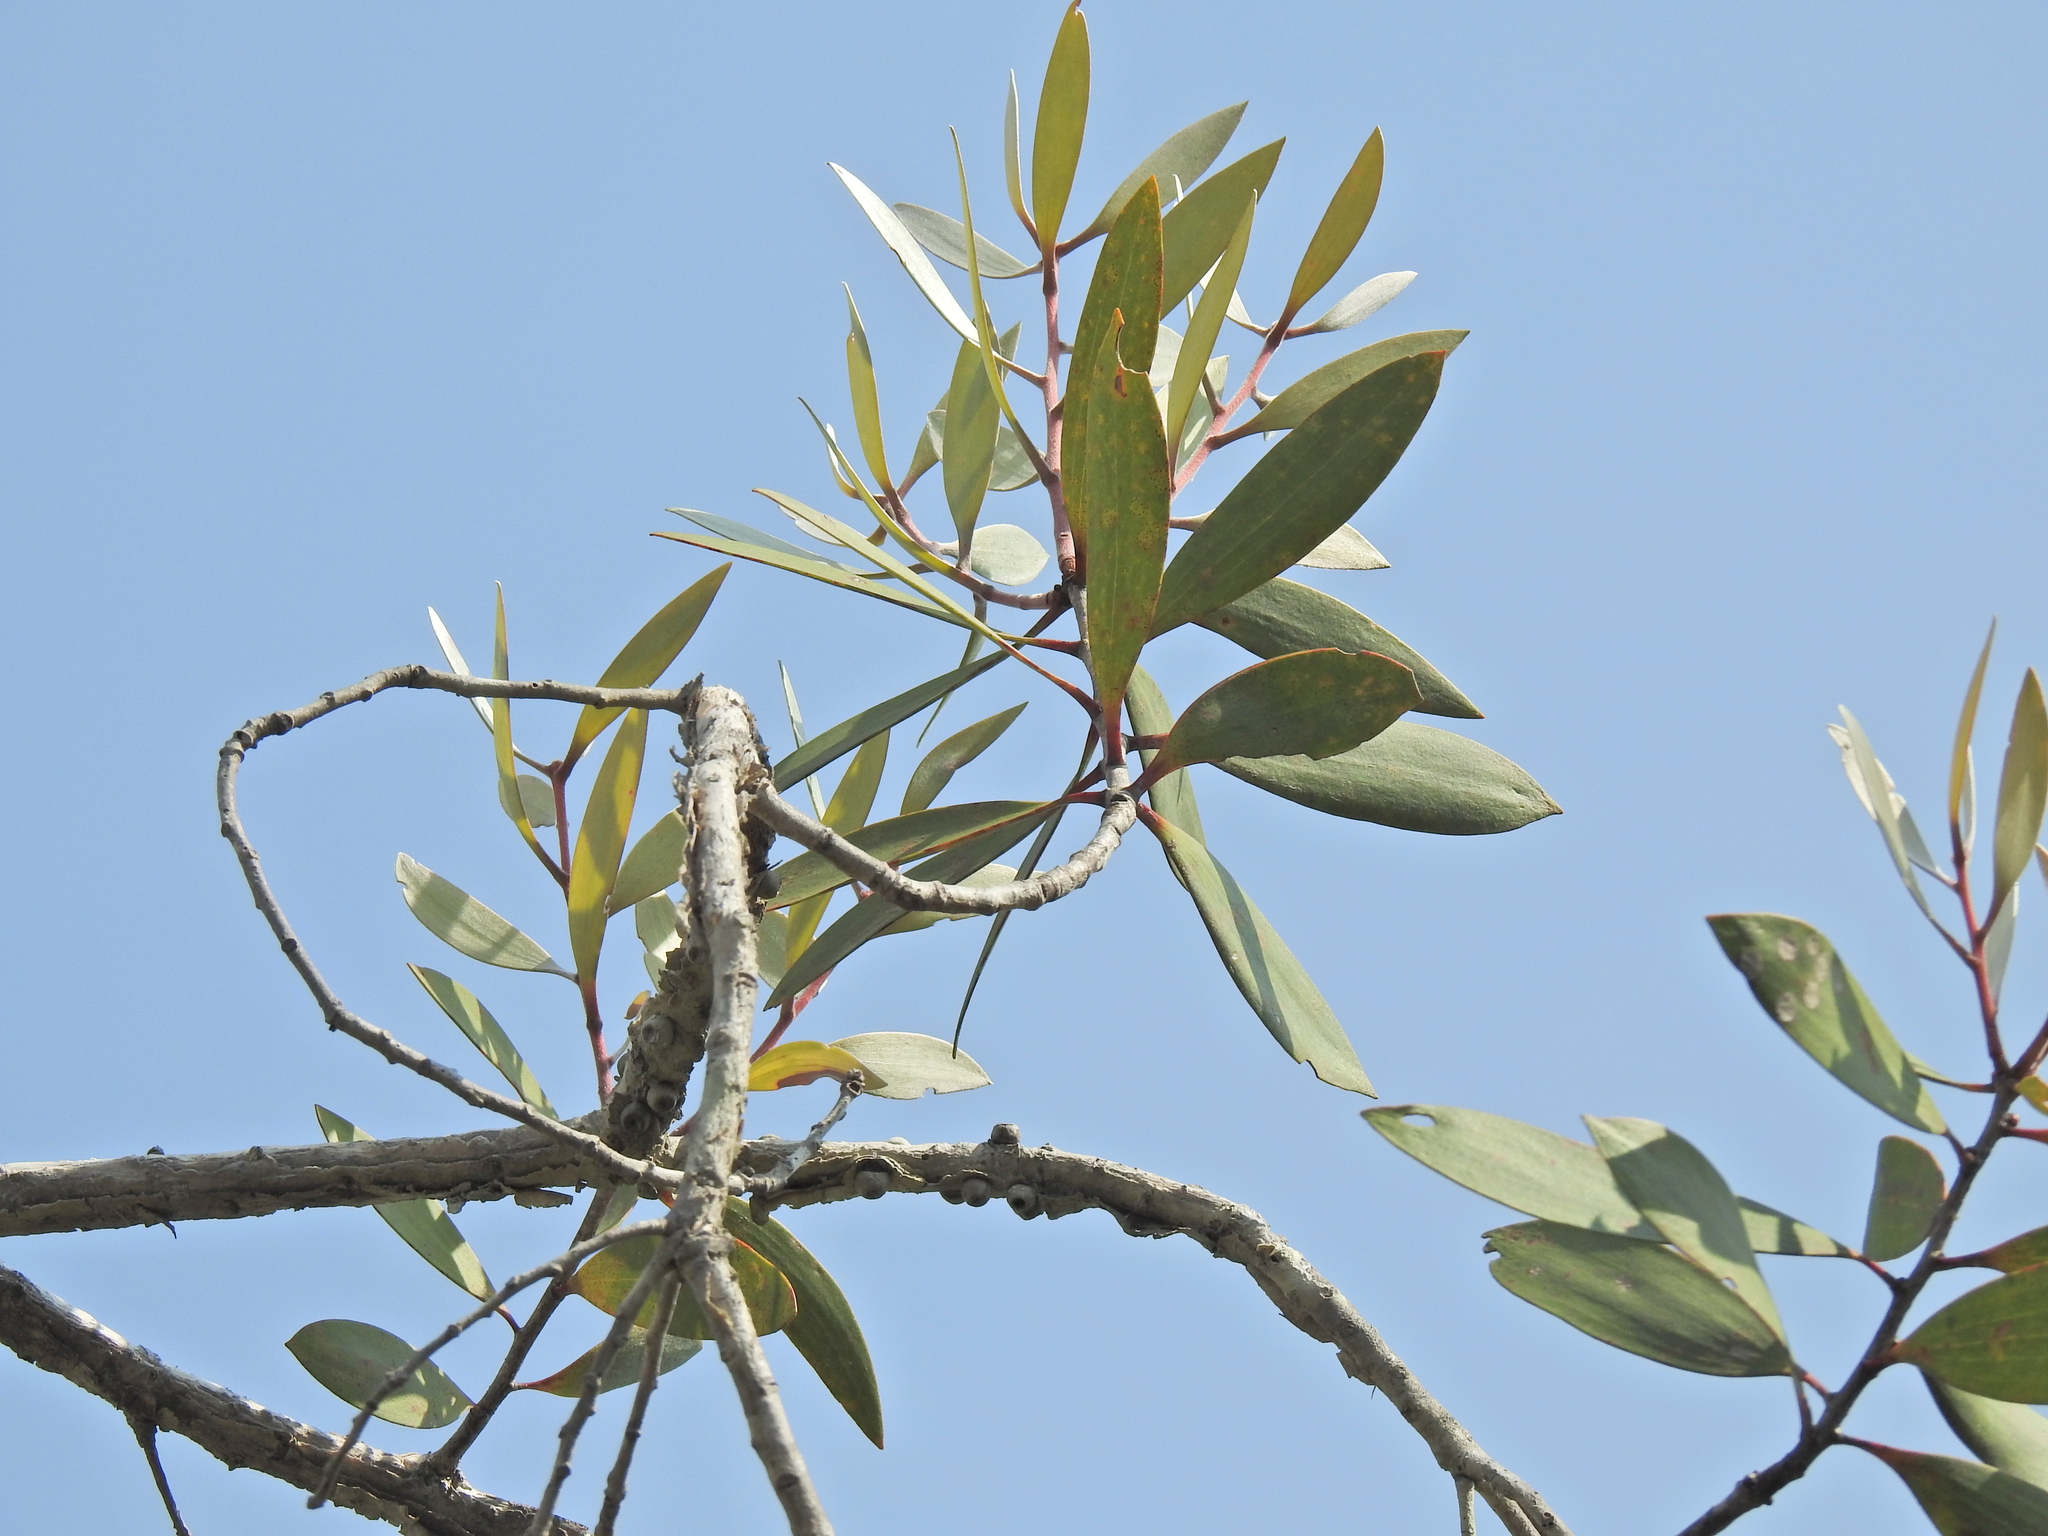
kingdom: Plantae
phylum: Tracheophyta
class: Magnoliopsida
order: Myrtales
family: Myrtaceae
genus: Melaleuca
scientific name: Melaleuca viridiflora
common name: Brown-leaved paperbark
